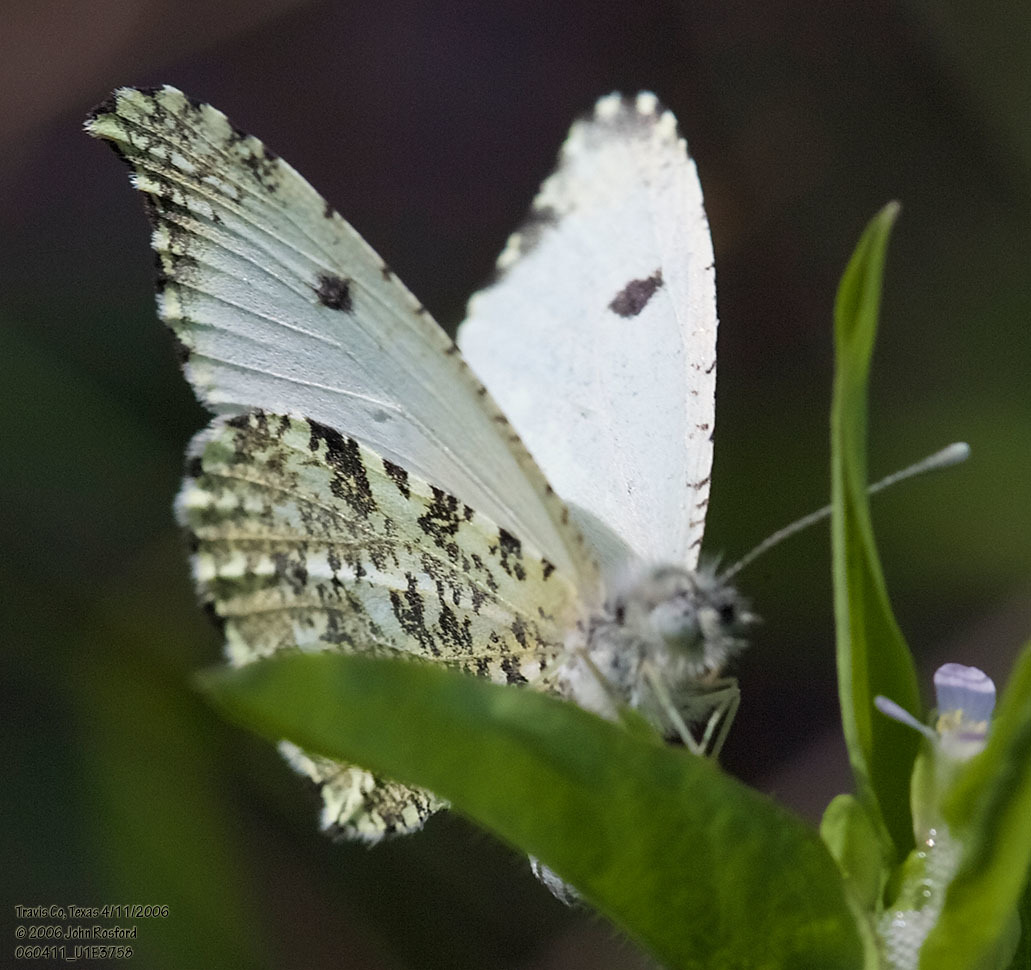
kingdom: Animalia
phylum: Arthropoda
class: Insecta
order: Lepidoptera
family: Pieridae
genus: Anthocharis
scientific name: Anthocharis midea
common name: Falcate orangetip
